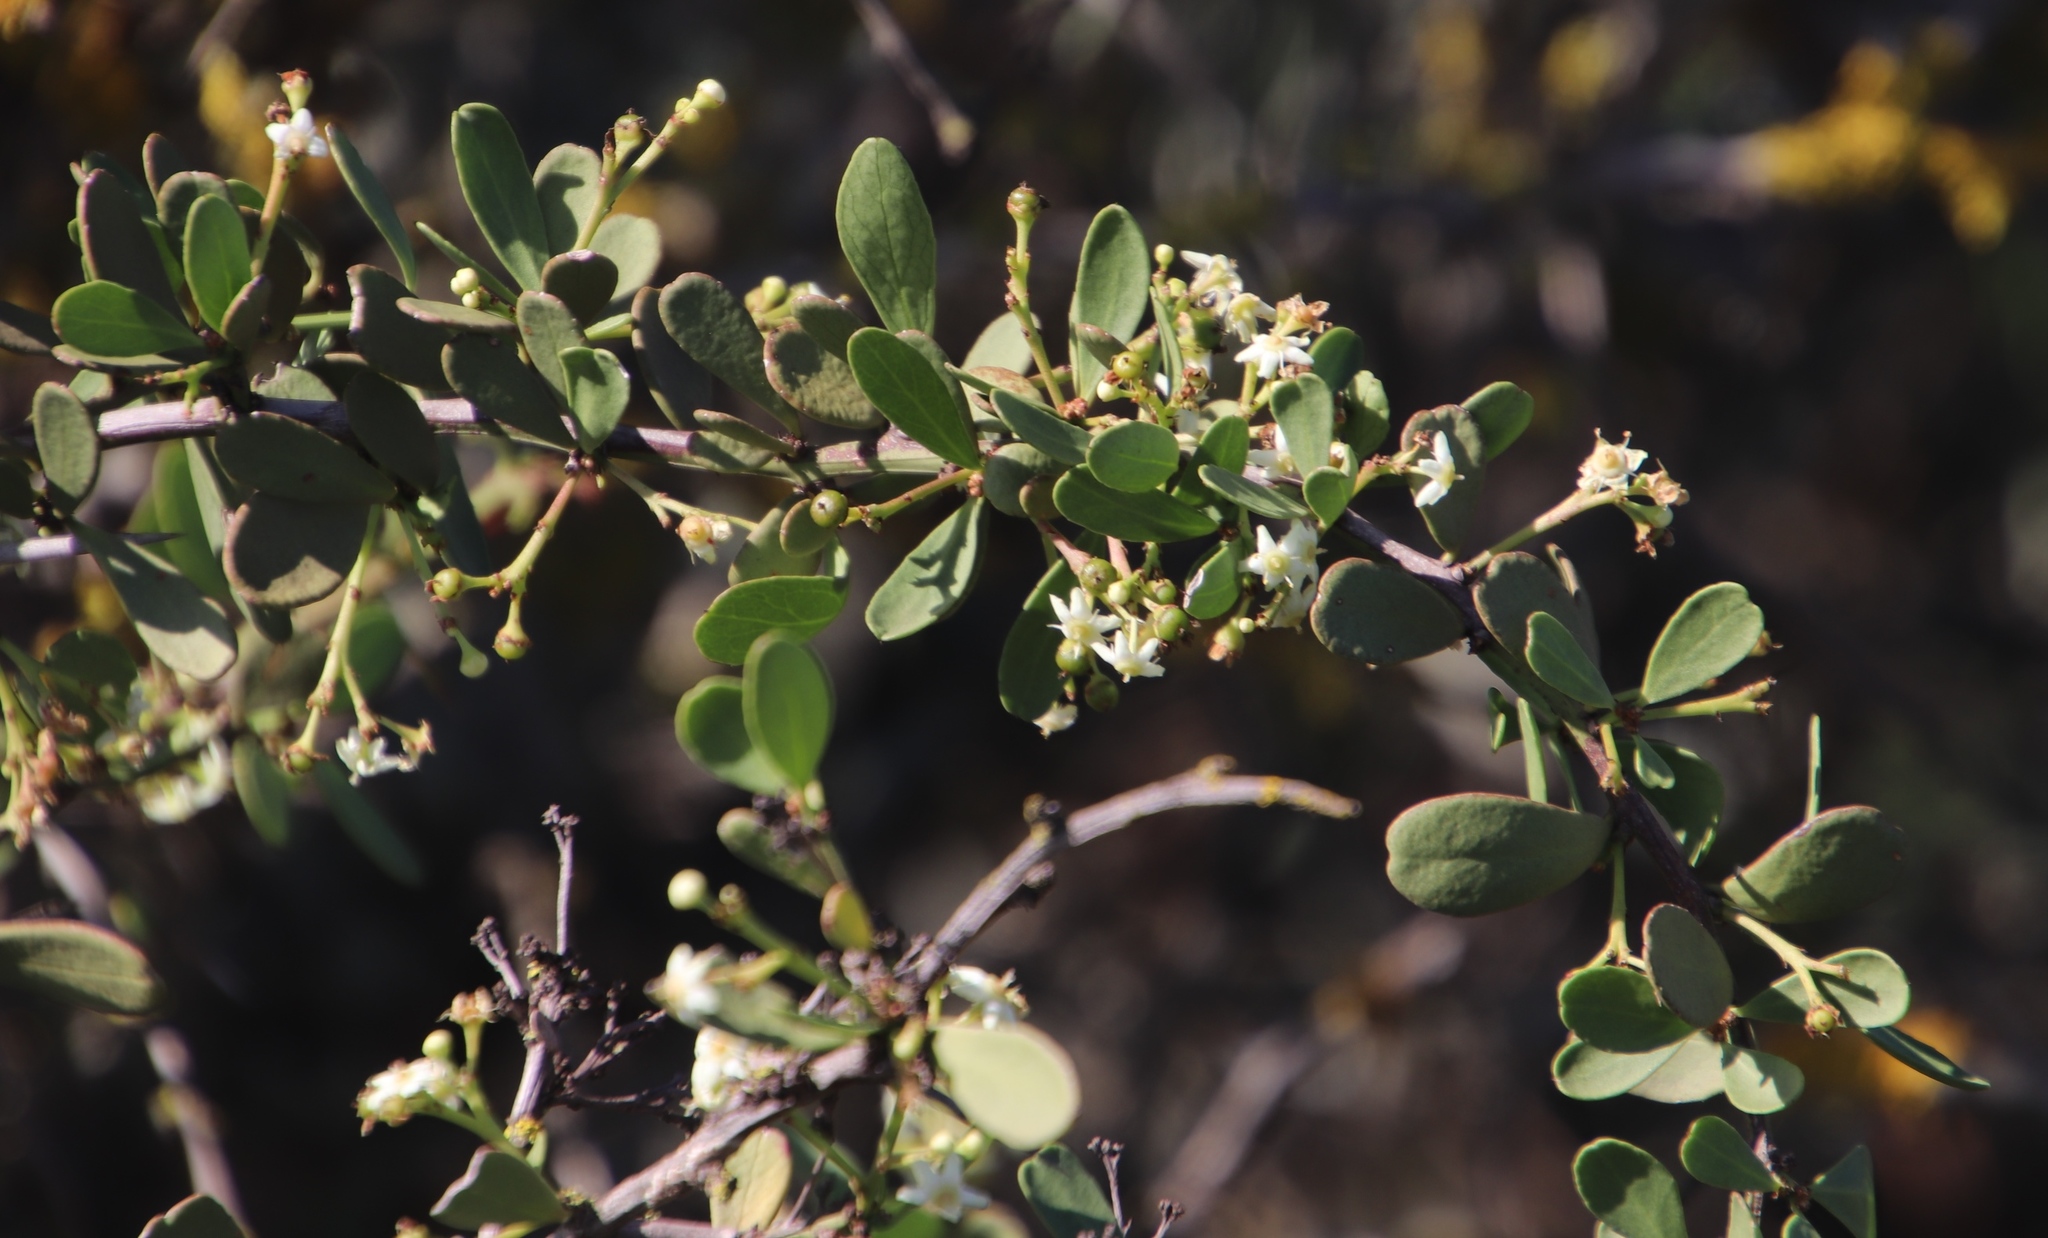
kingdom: Plantae
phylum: Tracheophyta
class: Magnoliopsida
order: Celastrales
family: Celastraceae
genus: Gymnosporia
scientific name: Gymnosporia buxifolia
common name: Common spike-thorn
